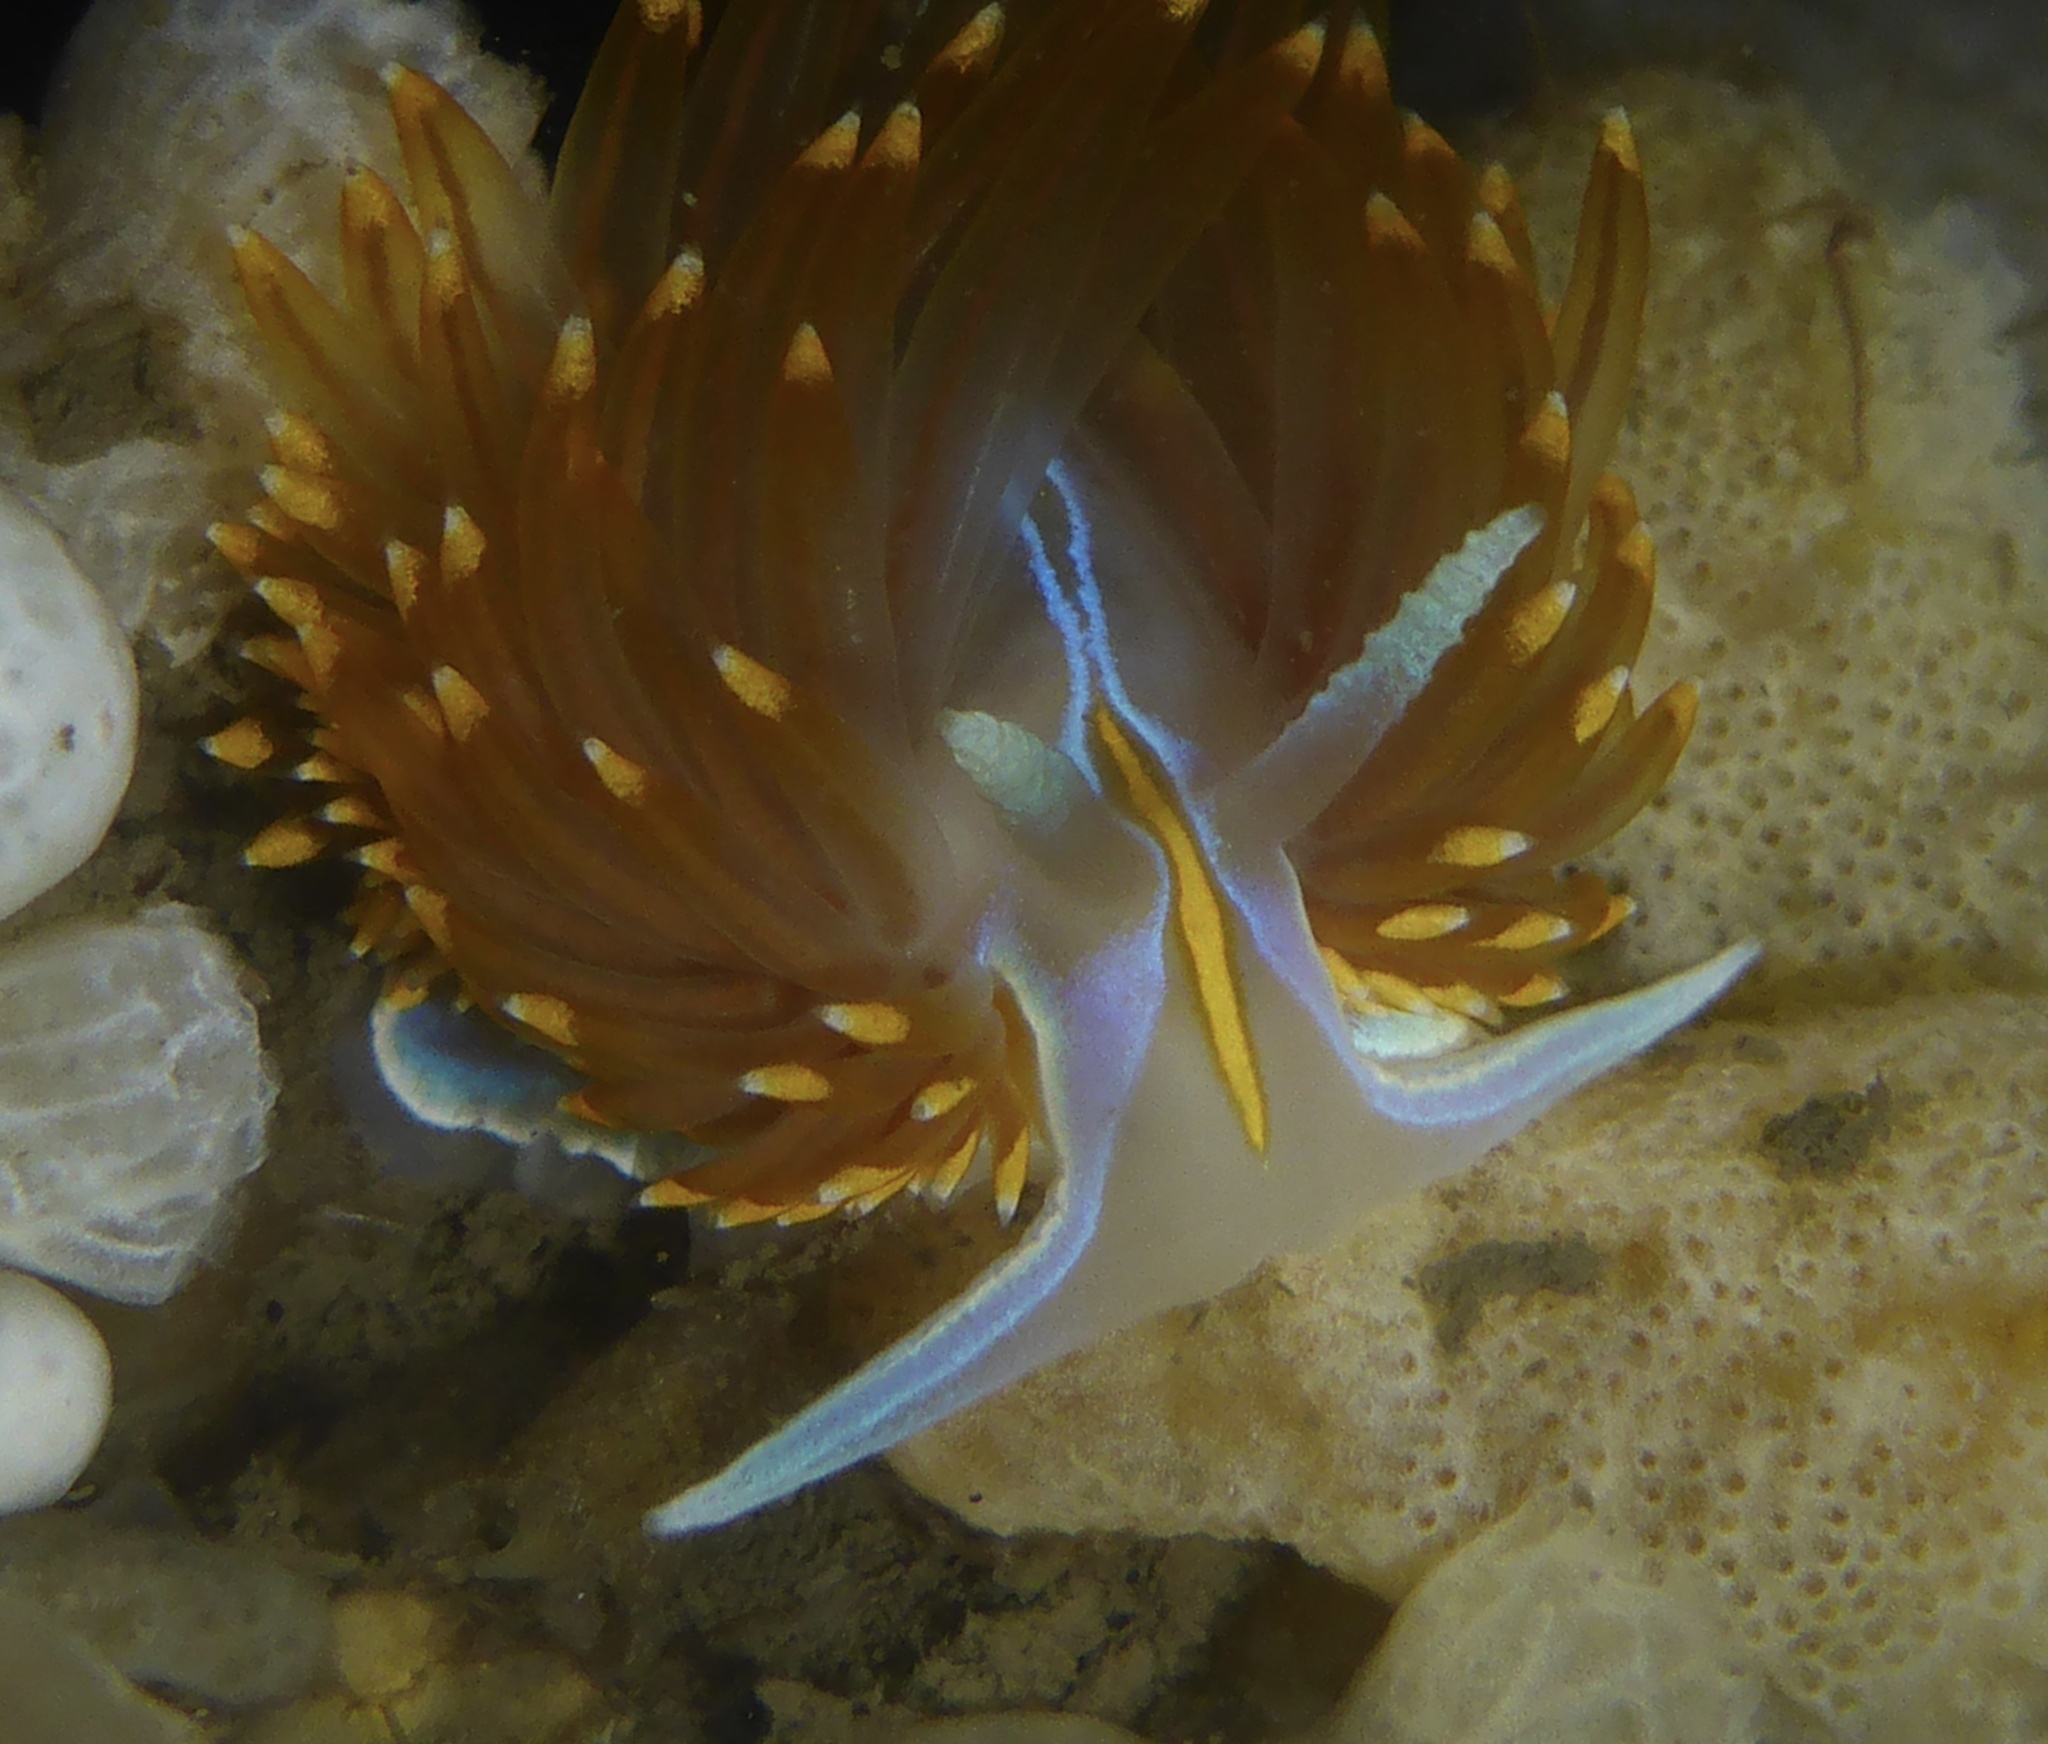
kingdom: Animalia
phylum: Mollusca
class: Gastropoda
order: Nudibranchia
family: Myrrhinidae
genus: Hermissenda
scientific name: Hermissenda opalescens
